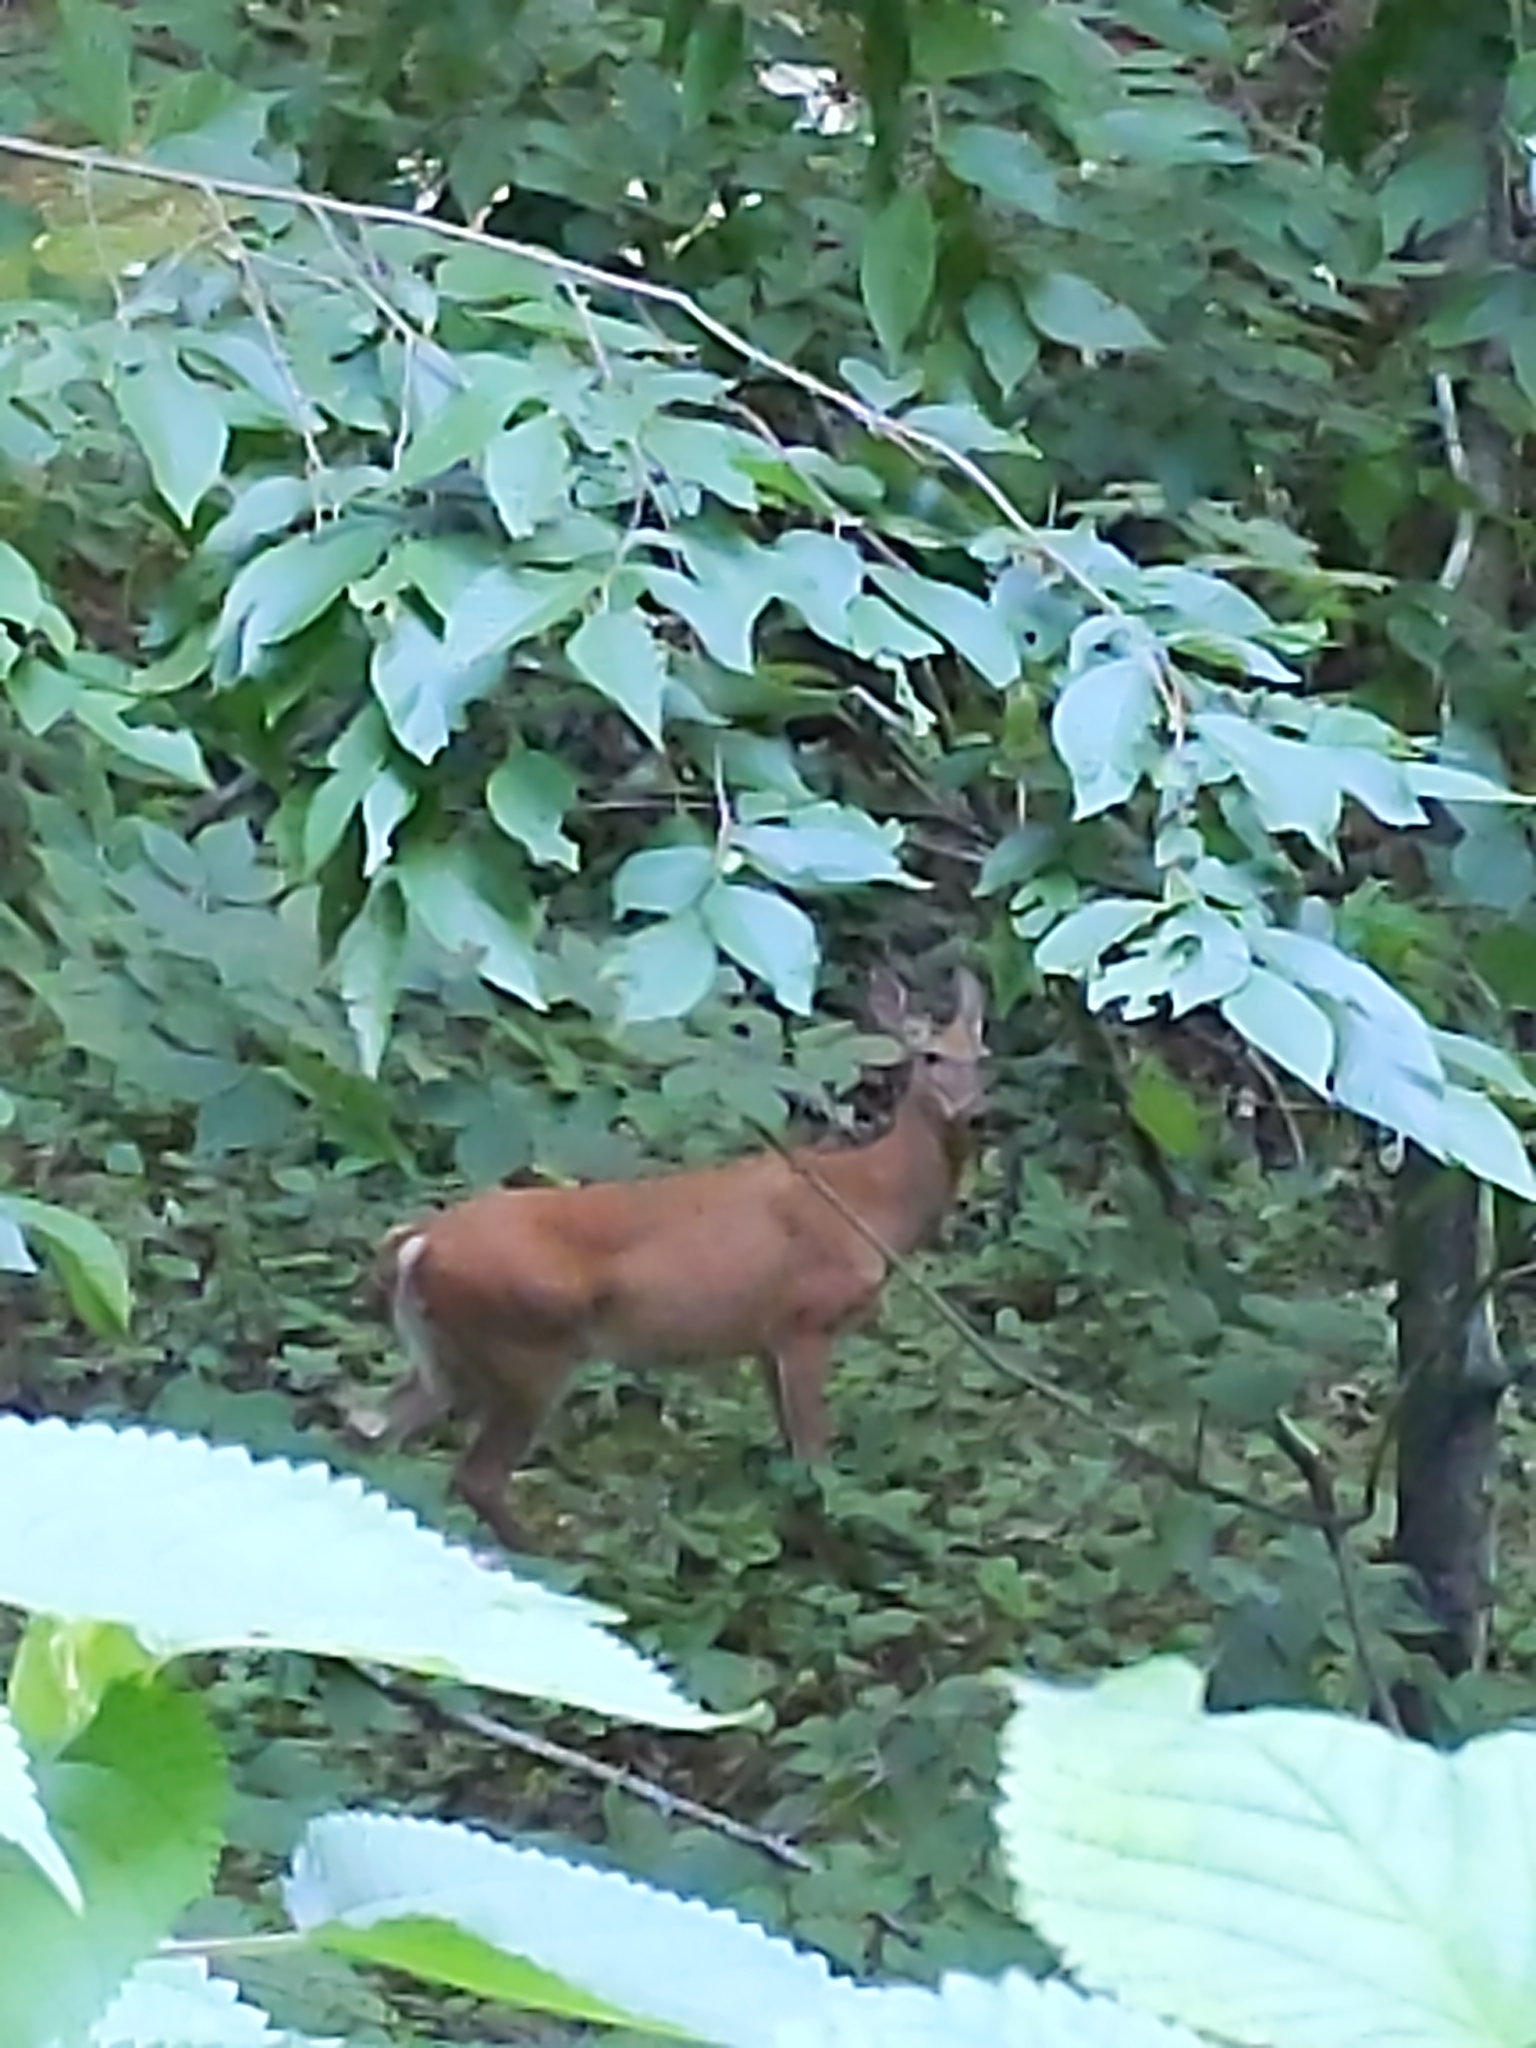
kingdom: Animalia
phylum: Chordata
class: Mammalia
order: Artiodactyla
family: Cervidae
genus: Odocoileus
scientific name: Odocoileus virginianus
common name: White-tailed deer
